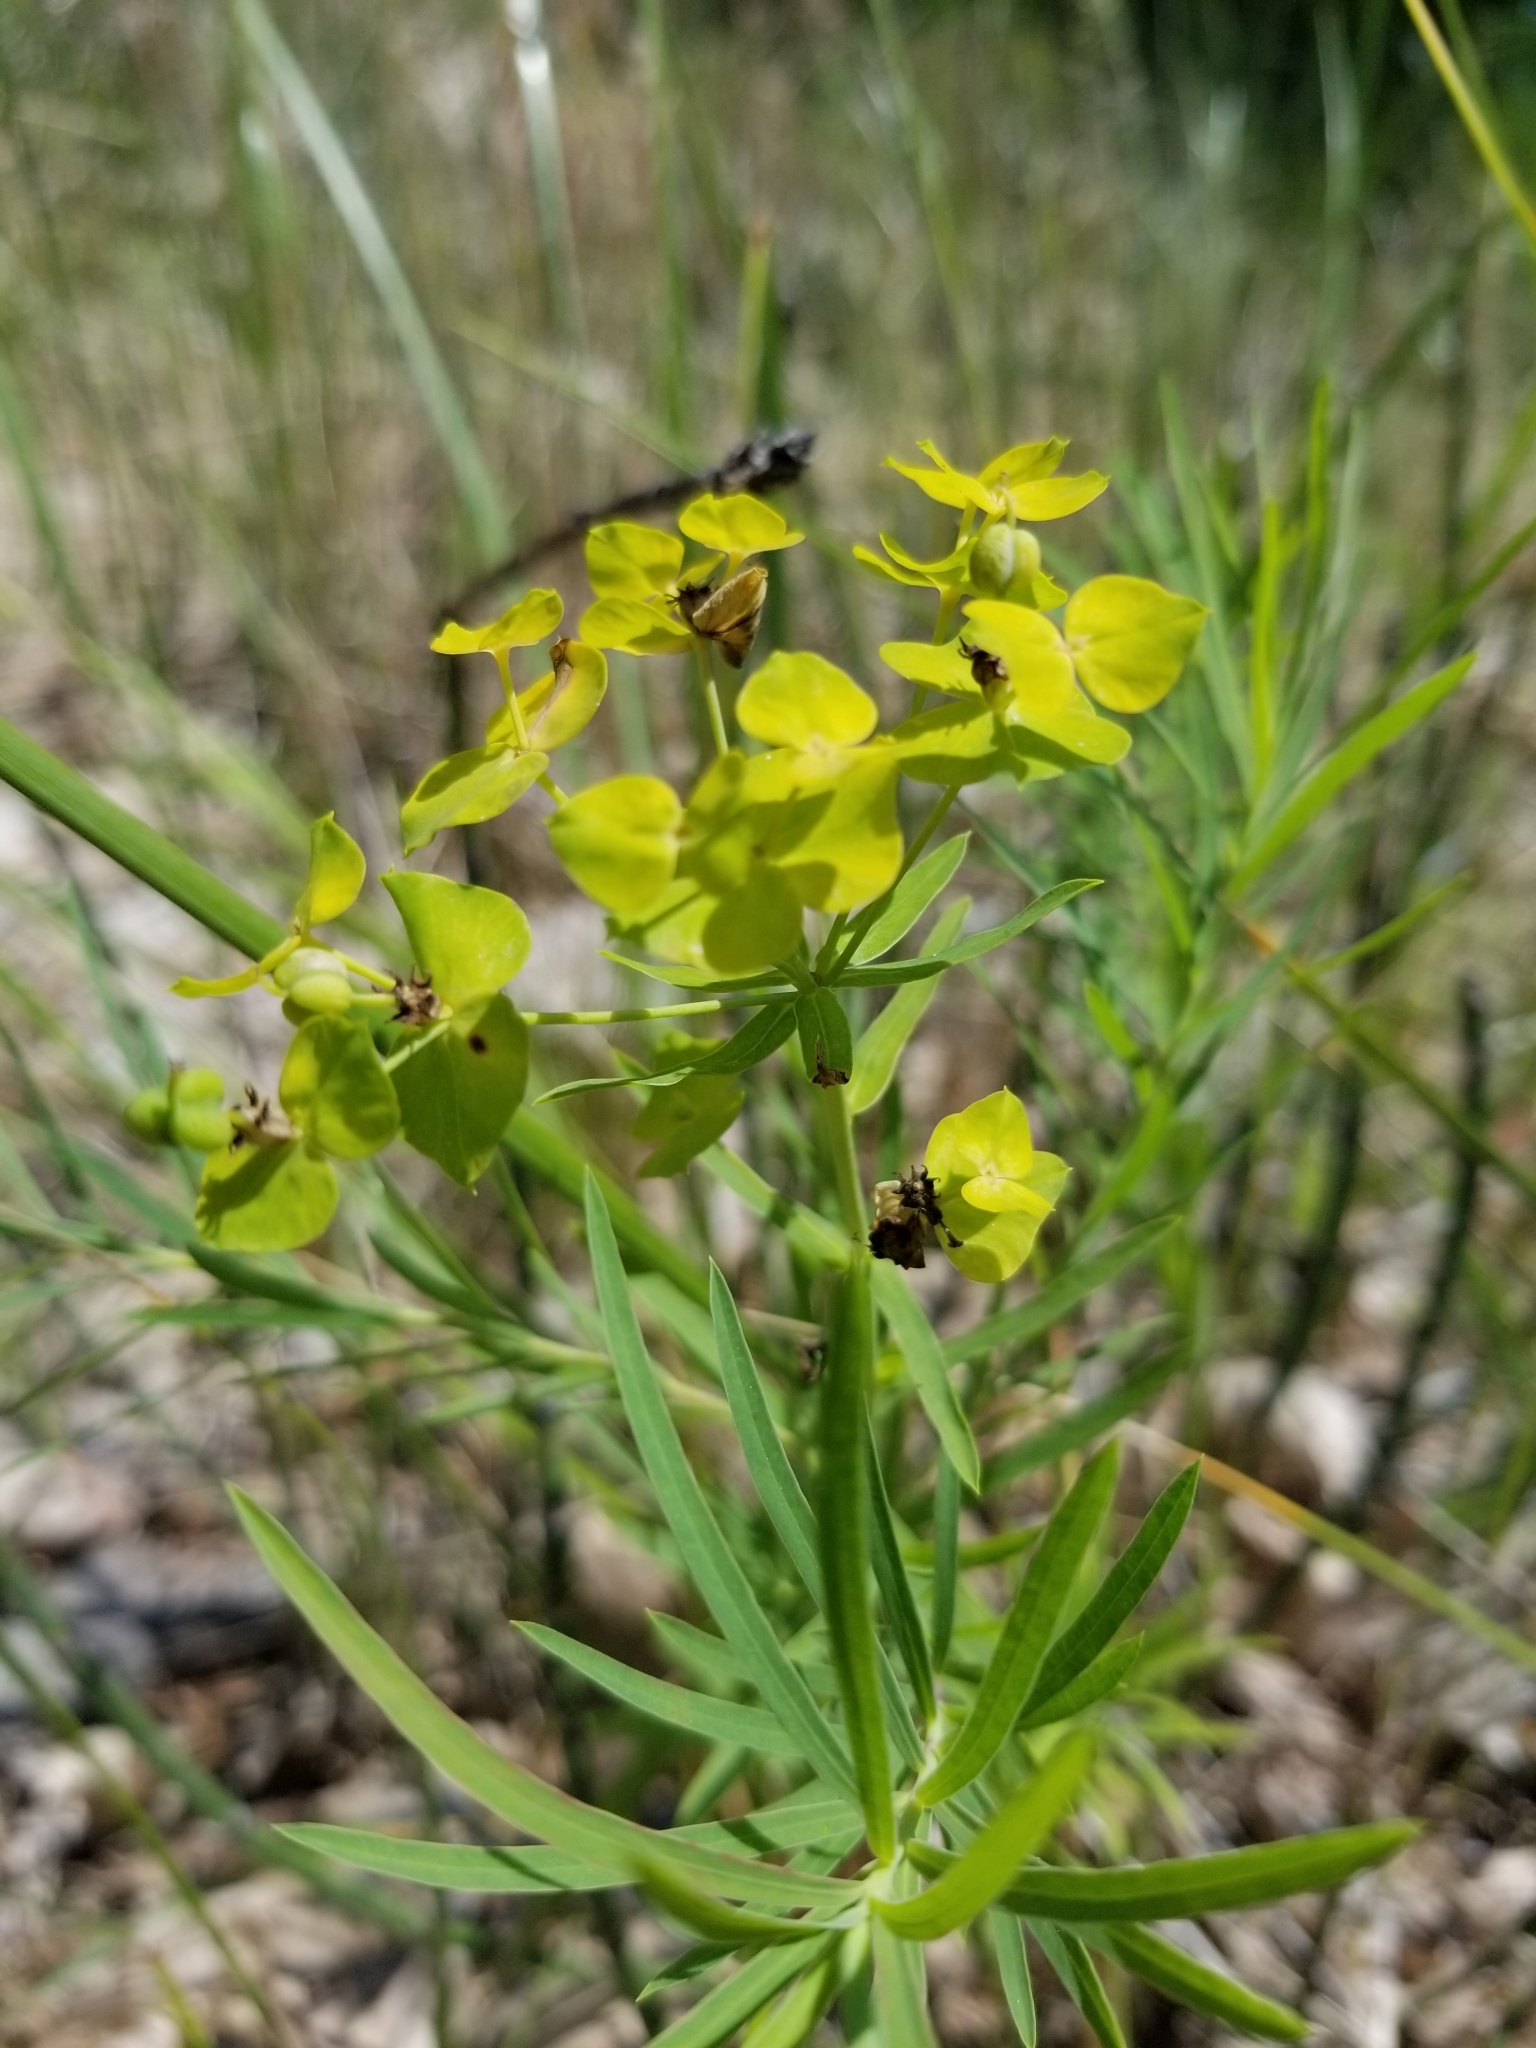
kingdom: Plantae
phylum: Tracheophyta
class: Magnoliopsida
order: Malpighiales
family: Euphorbiaceae
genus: Euphorbia
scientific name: Euphorbia virgata
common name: Leafy spurge
